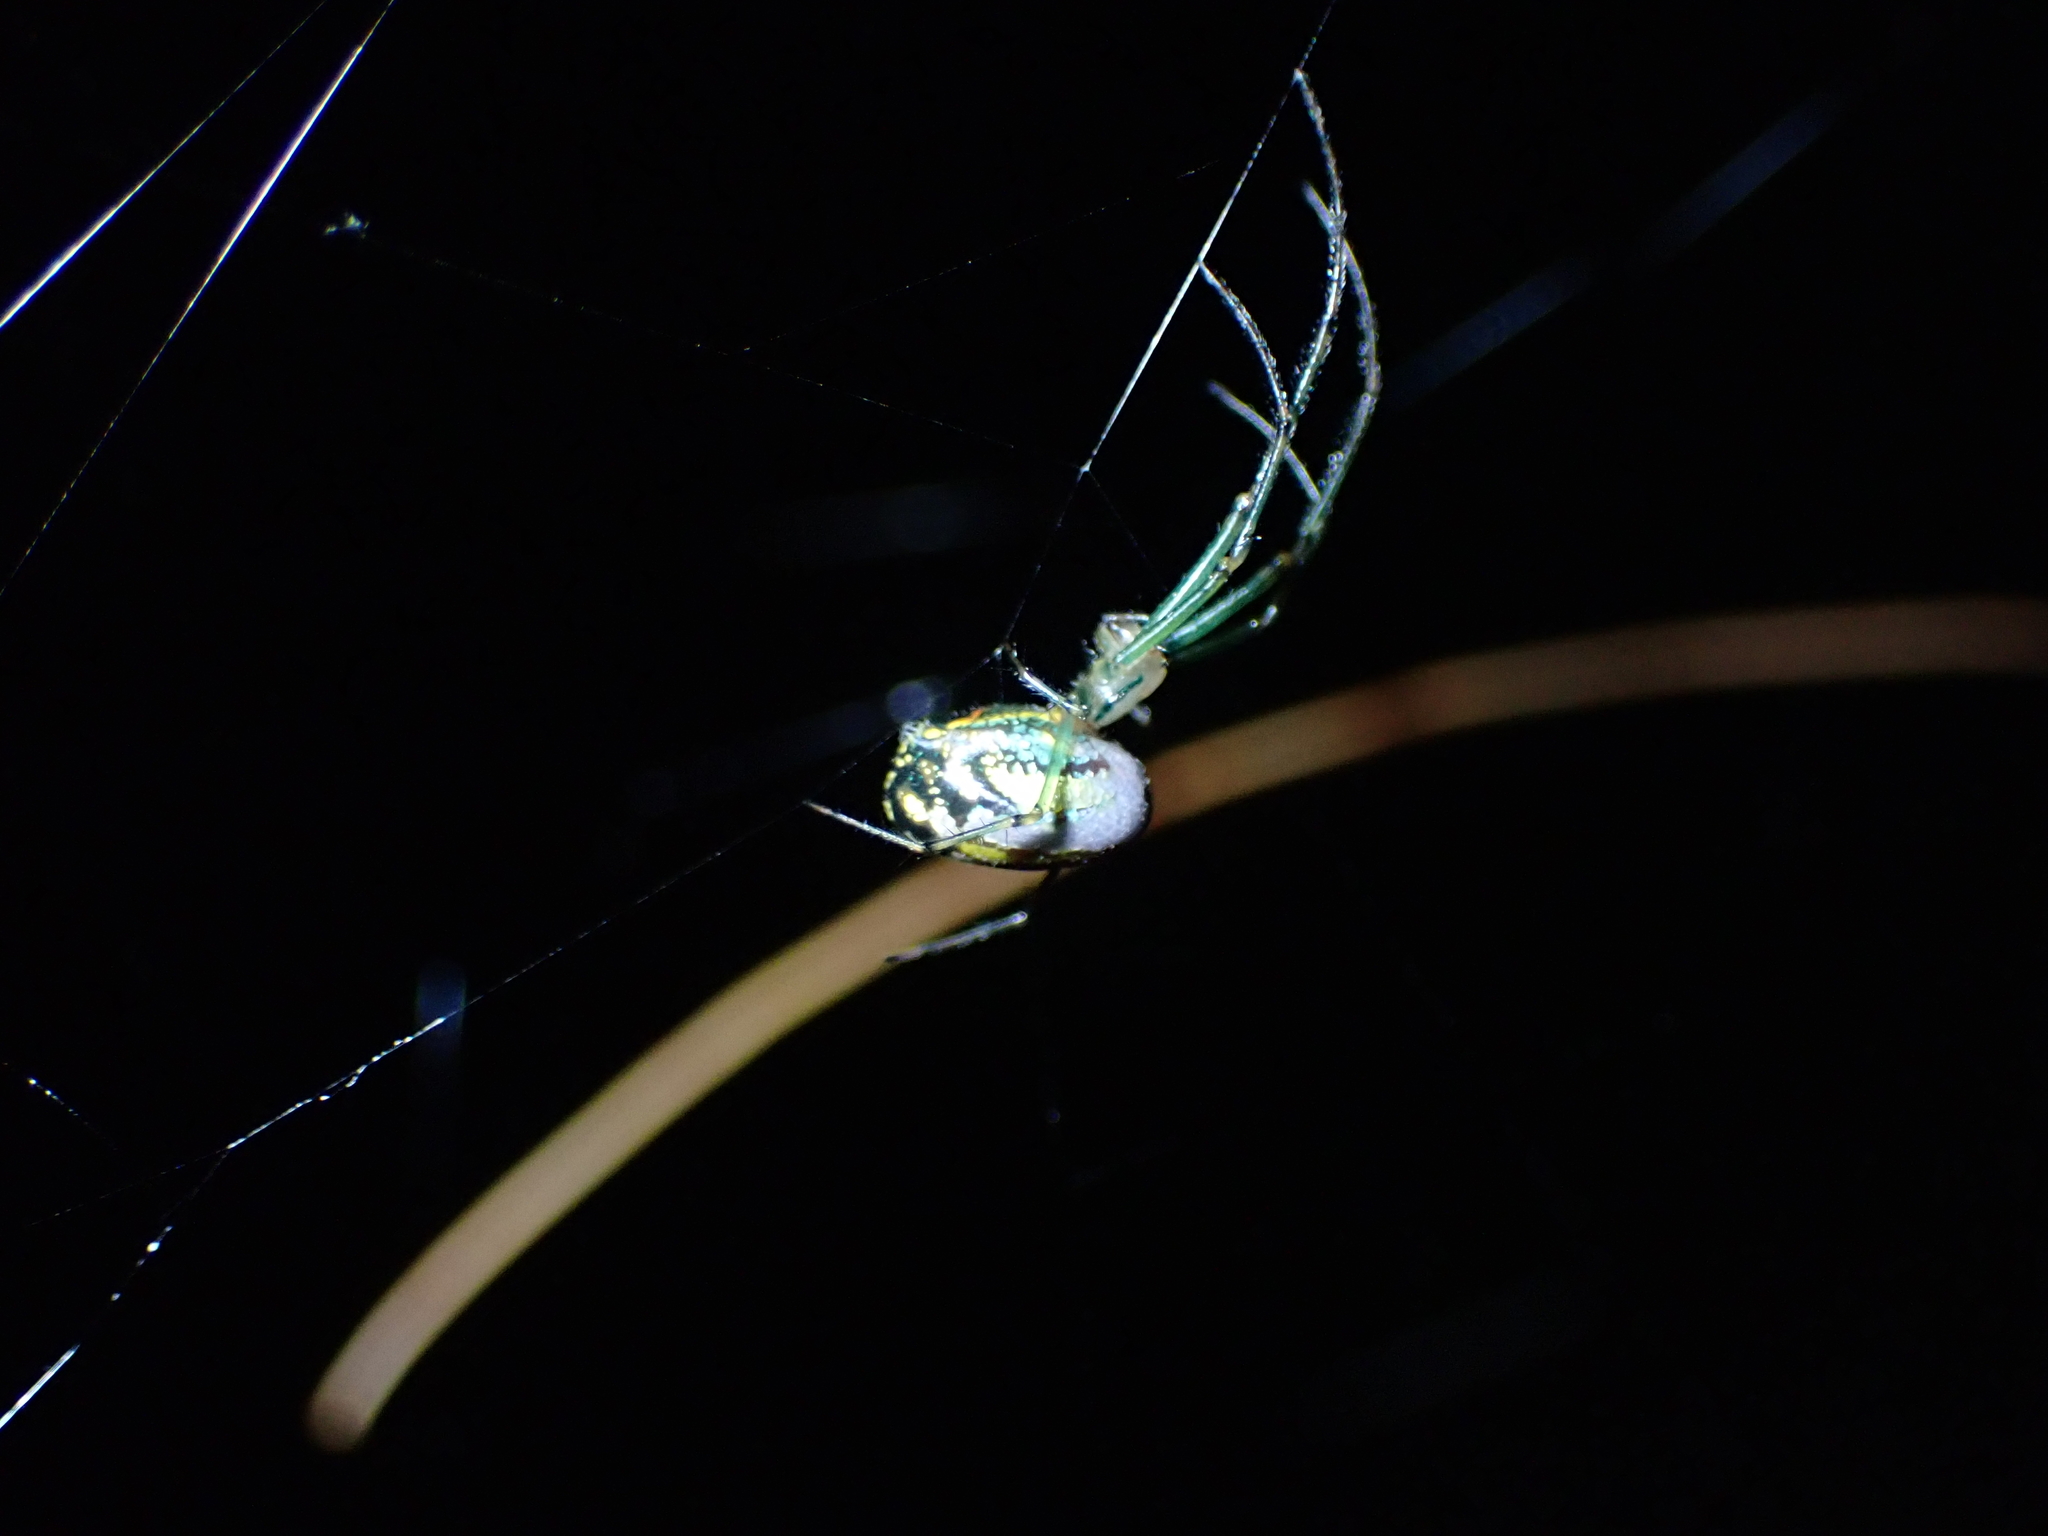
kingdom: Animalia
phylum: Arthropoda
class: Arachnida
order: Araneae
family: Tetragnathidae
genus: Leucauge
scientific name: Leucauge venusta
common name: Longjawed orb weavers
